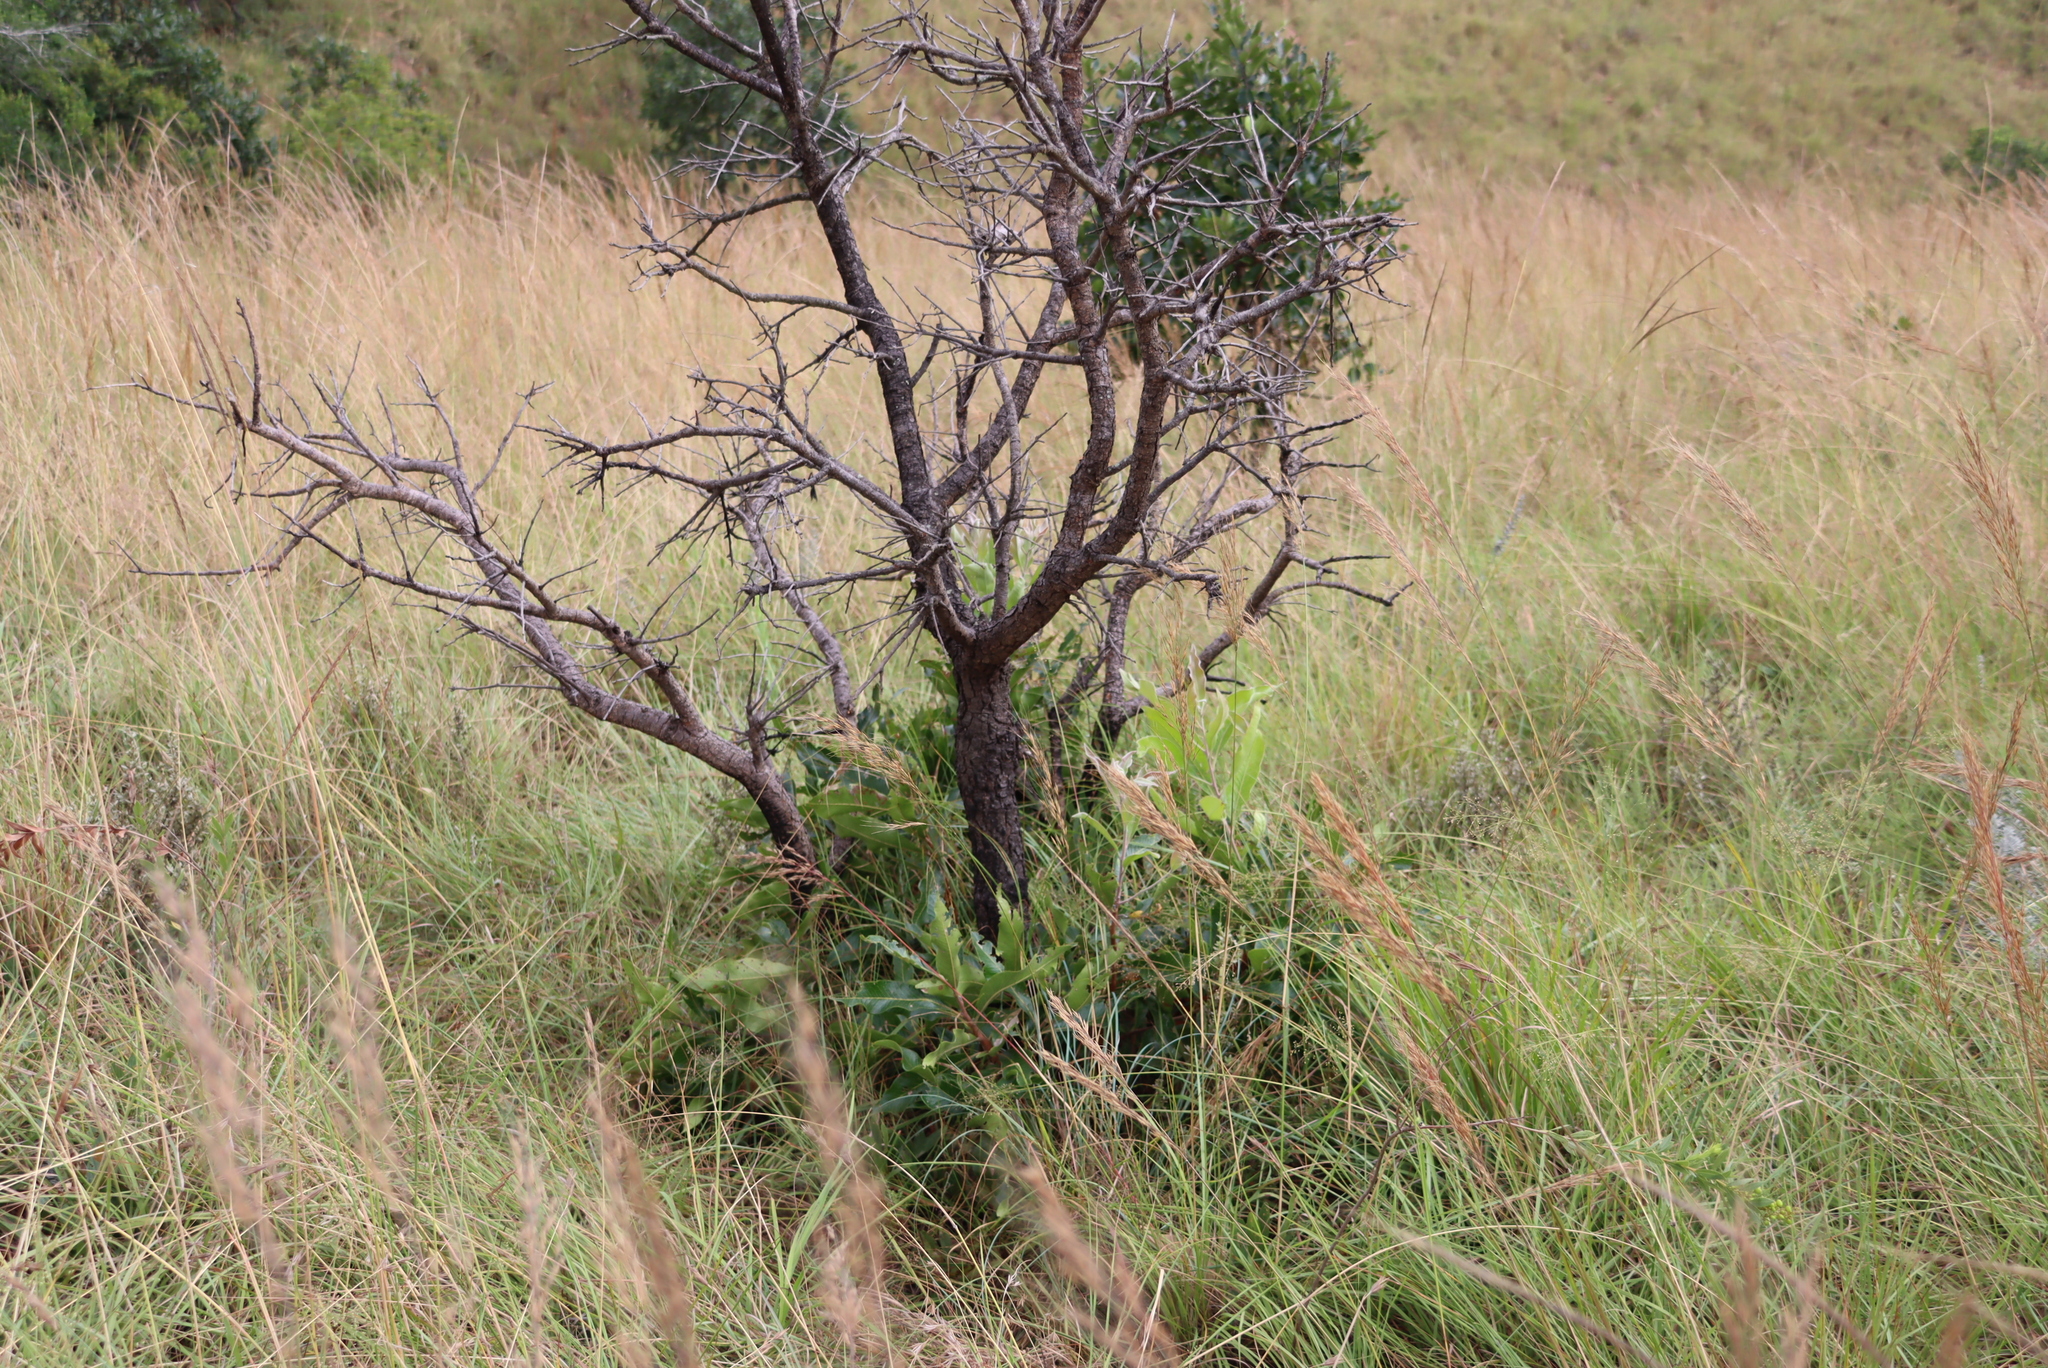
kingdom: Plantae
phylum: Tracheophyta
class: Magnoliopsida
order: Proteales
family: Proteaceae
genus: Faurea
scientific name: Faurea rochetiana
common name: Broad-leaved beech
